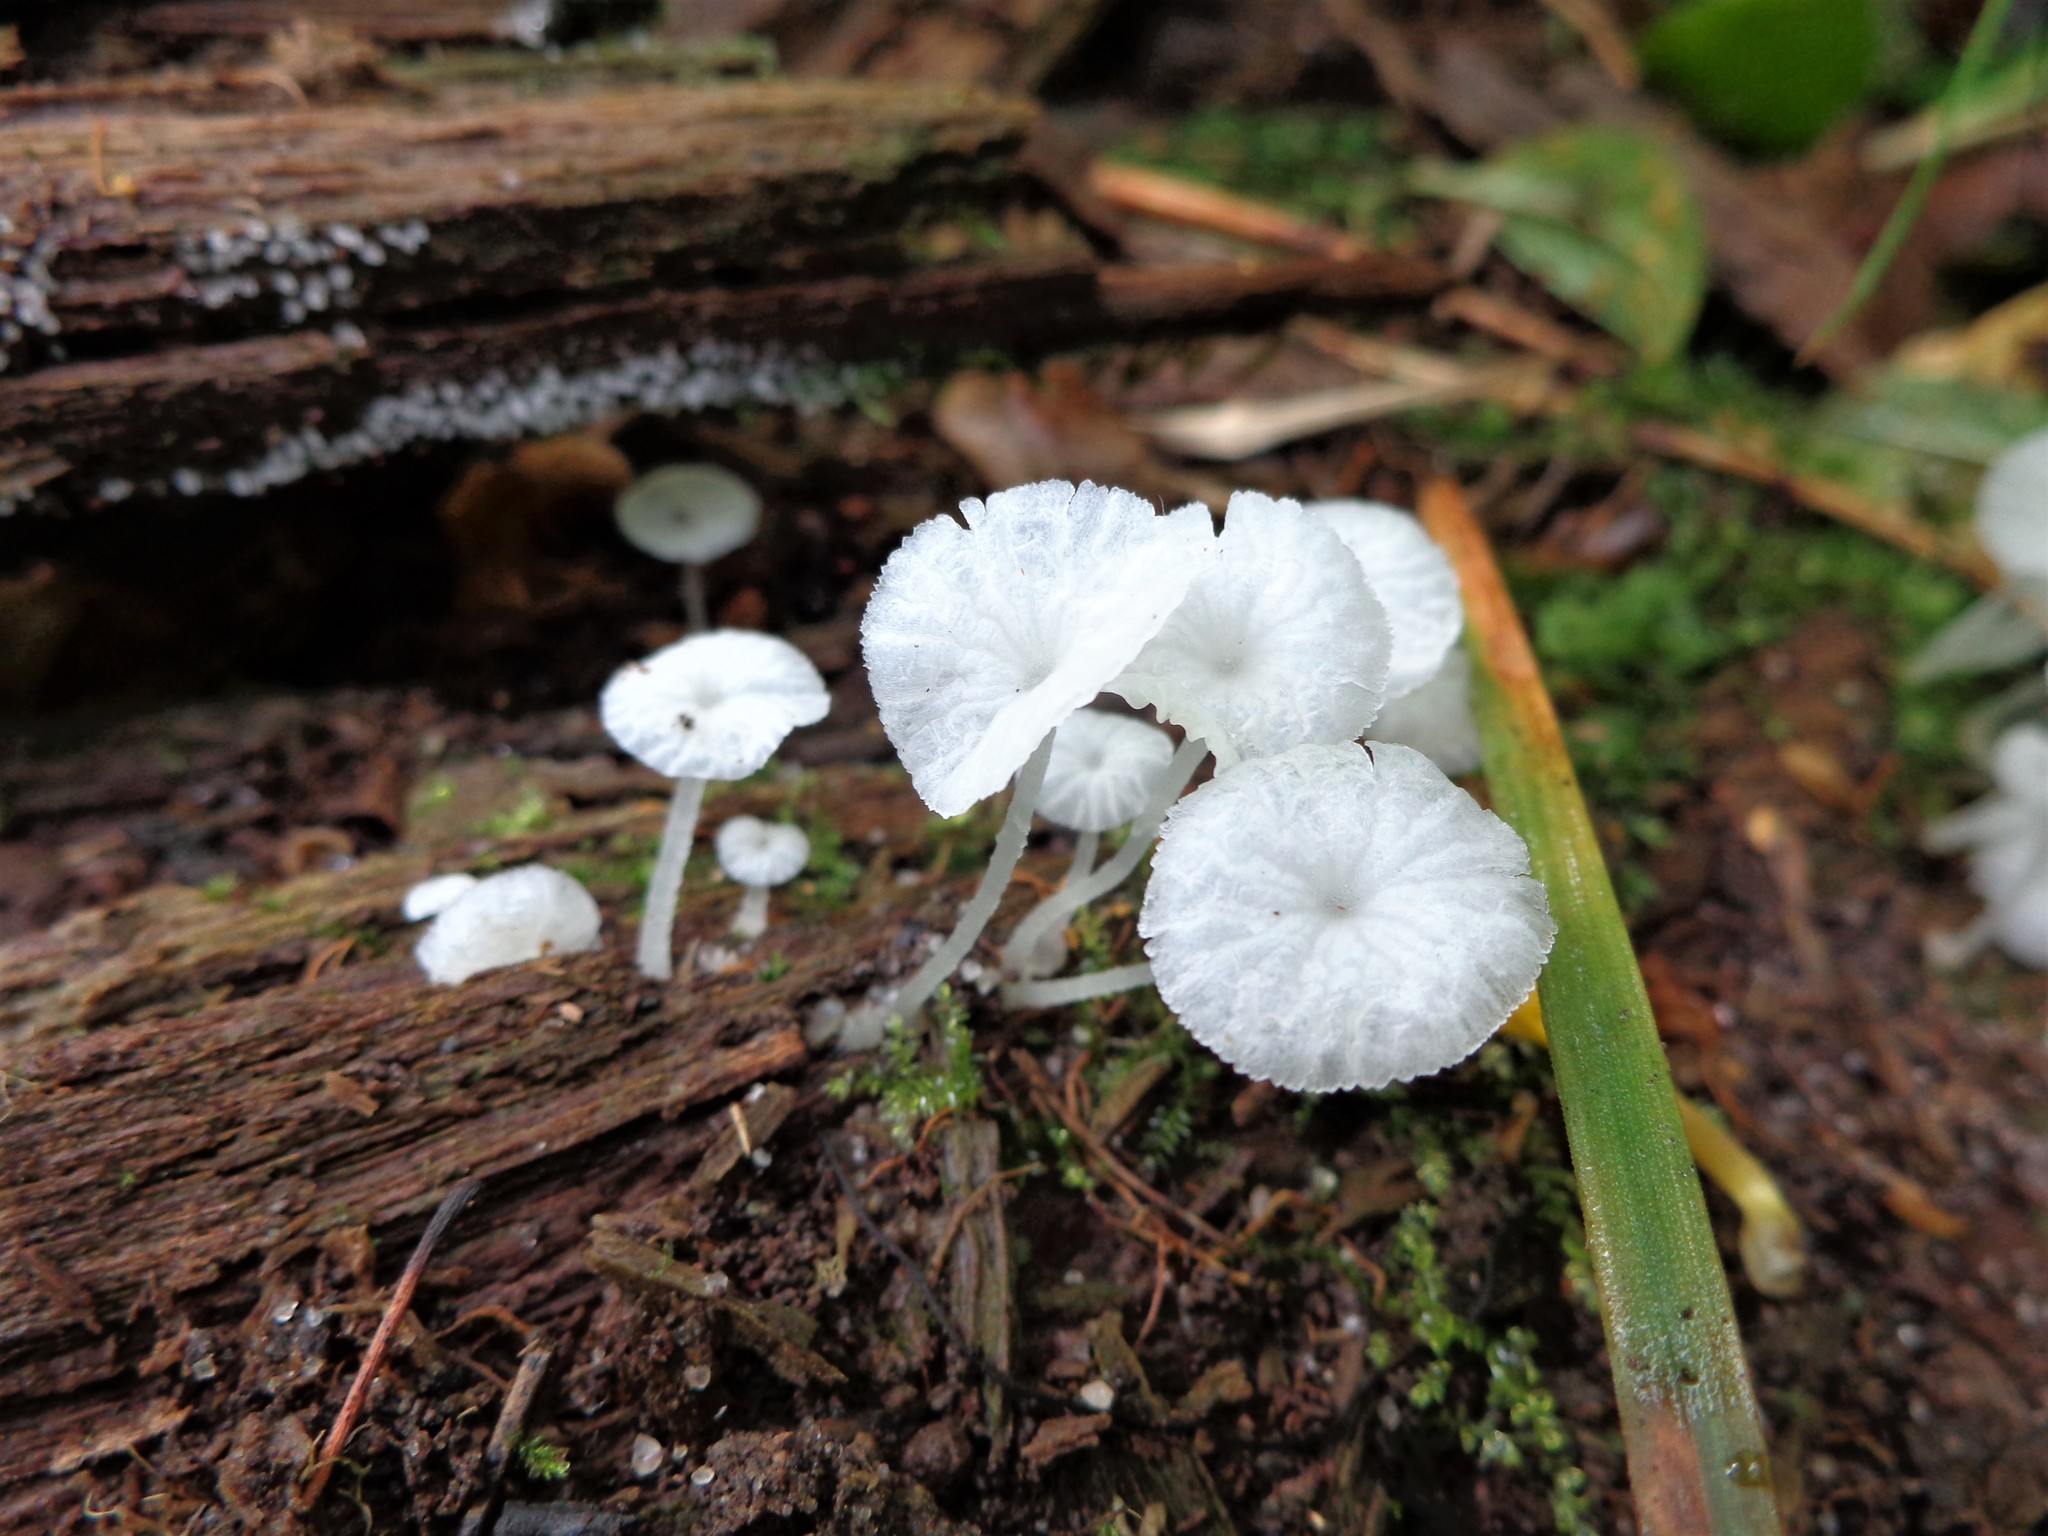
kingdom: Fungi
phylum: Basidiomycota
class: Agaricomycetes
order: Agaricales
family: Tricholomataceae
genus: Delicatula
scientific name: Delicatula integrella
